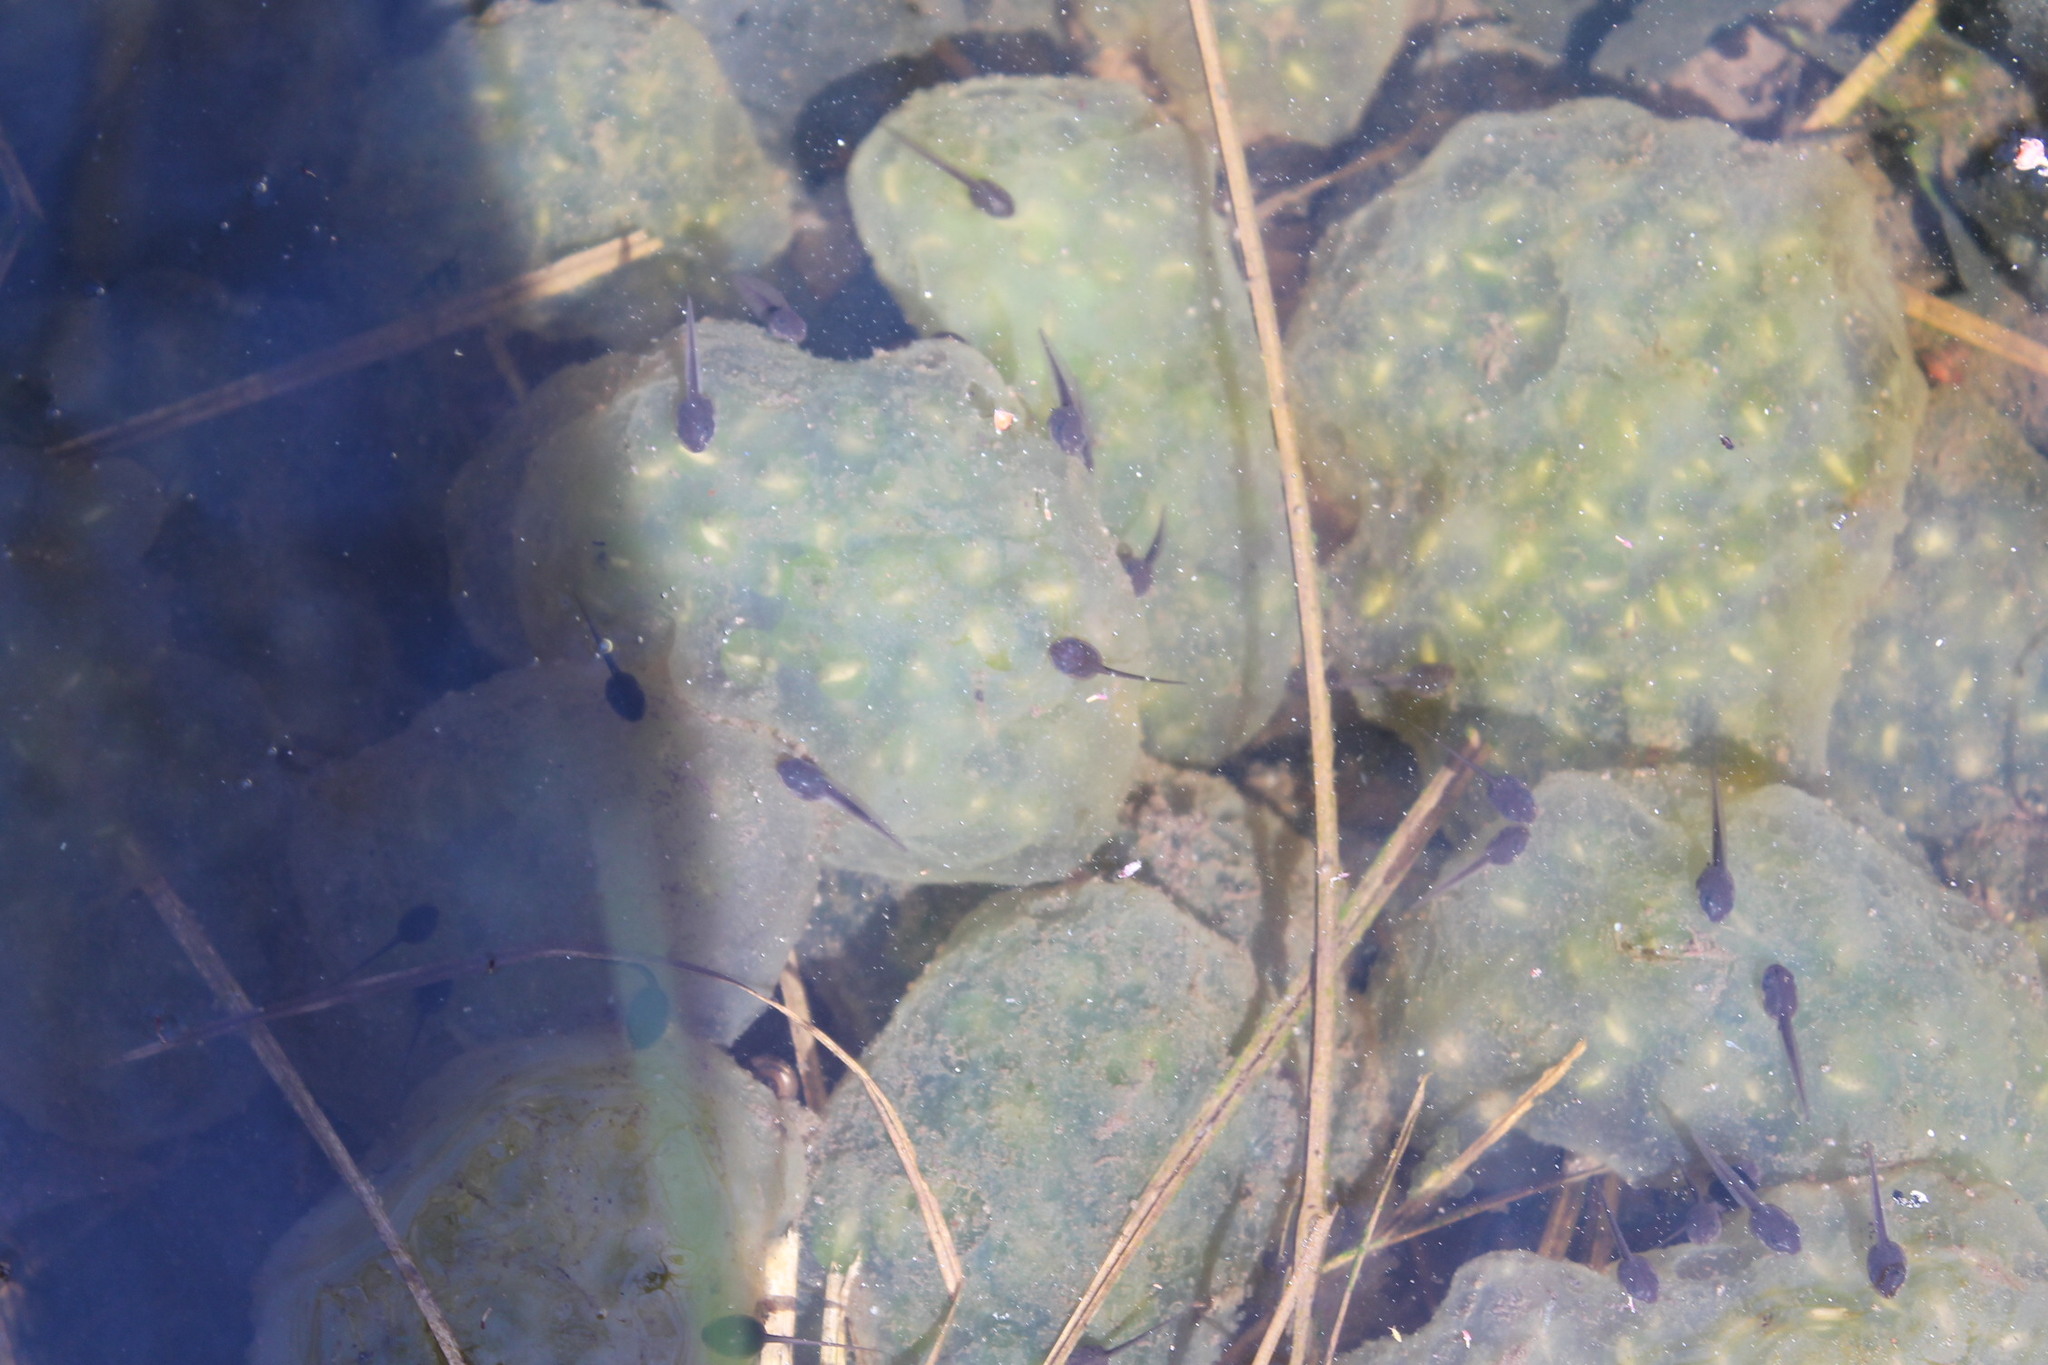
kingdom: Animalia
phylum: Chordata
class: Amphibia
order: Caudata
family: Ambystomatidae
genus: Ambystoma
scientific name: Ambystoma maculatum
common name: Spotted salamander
